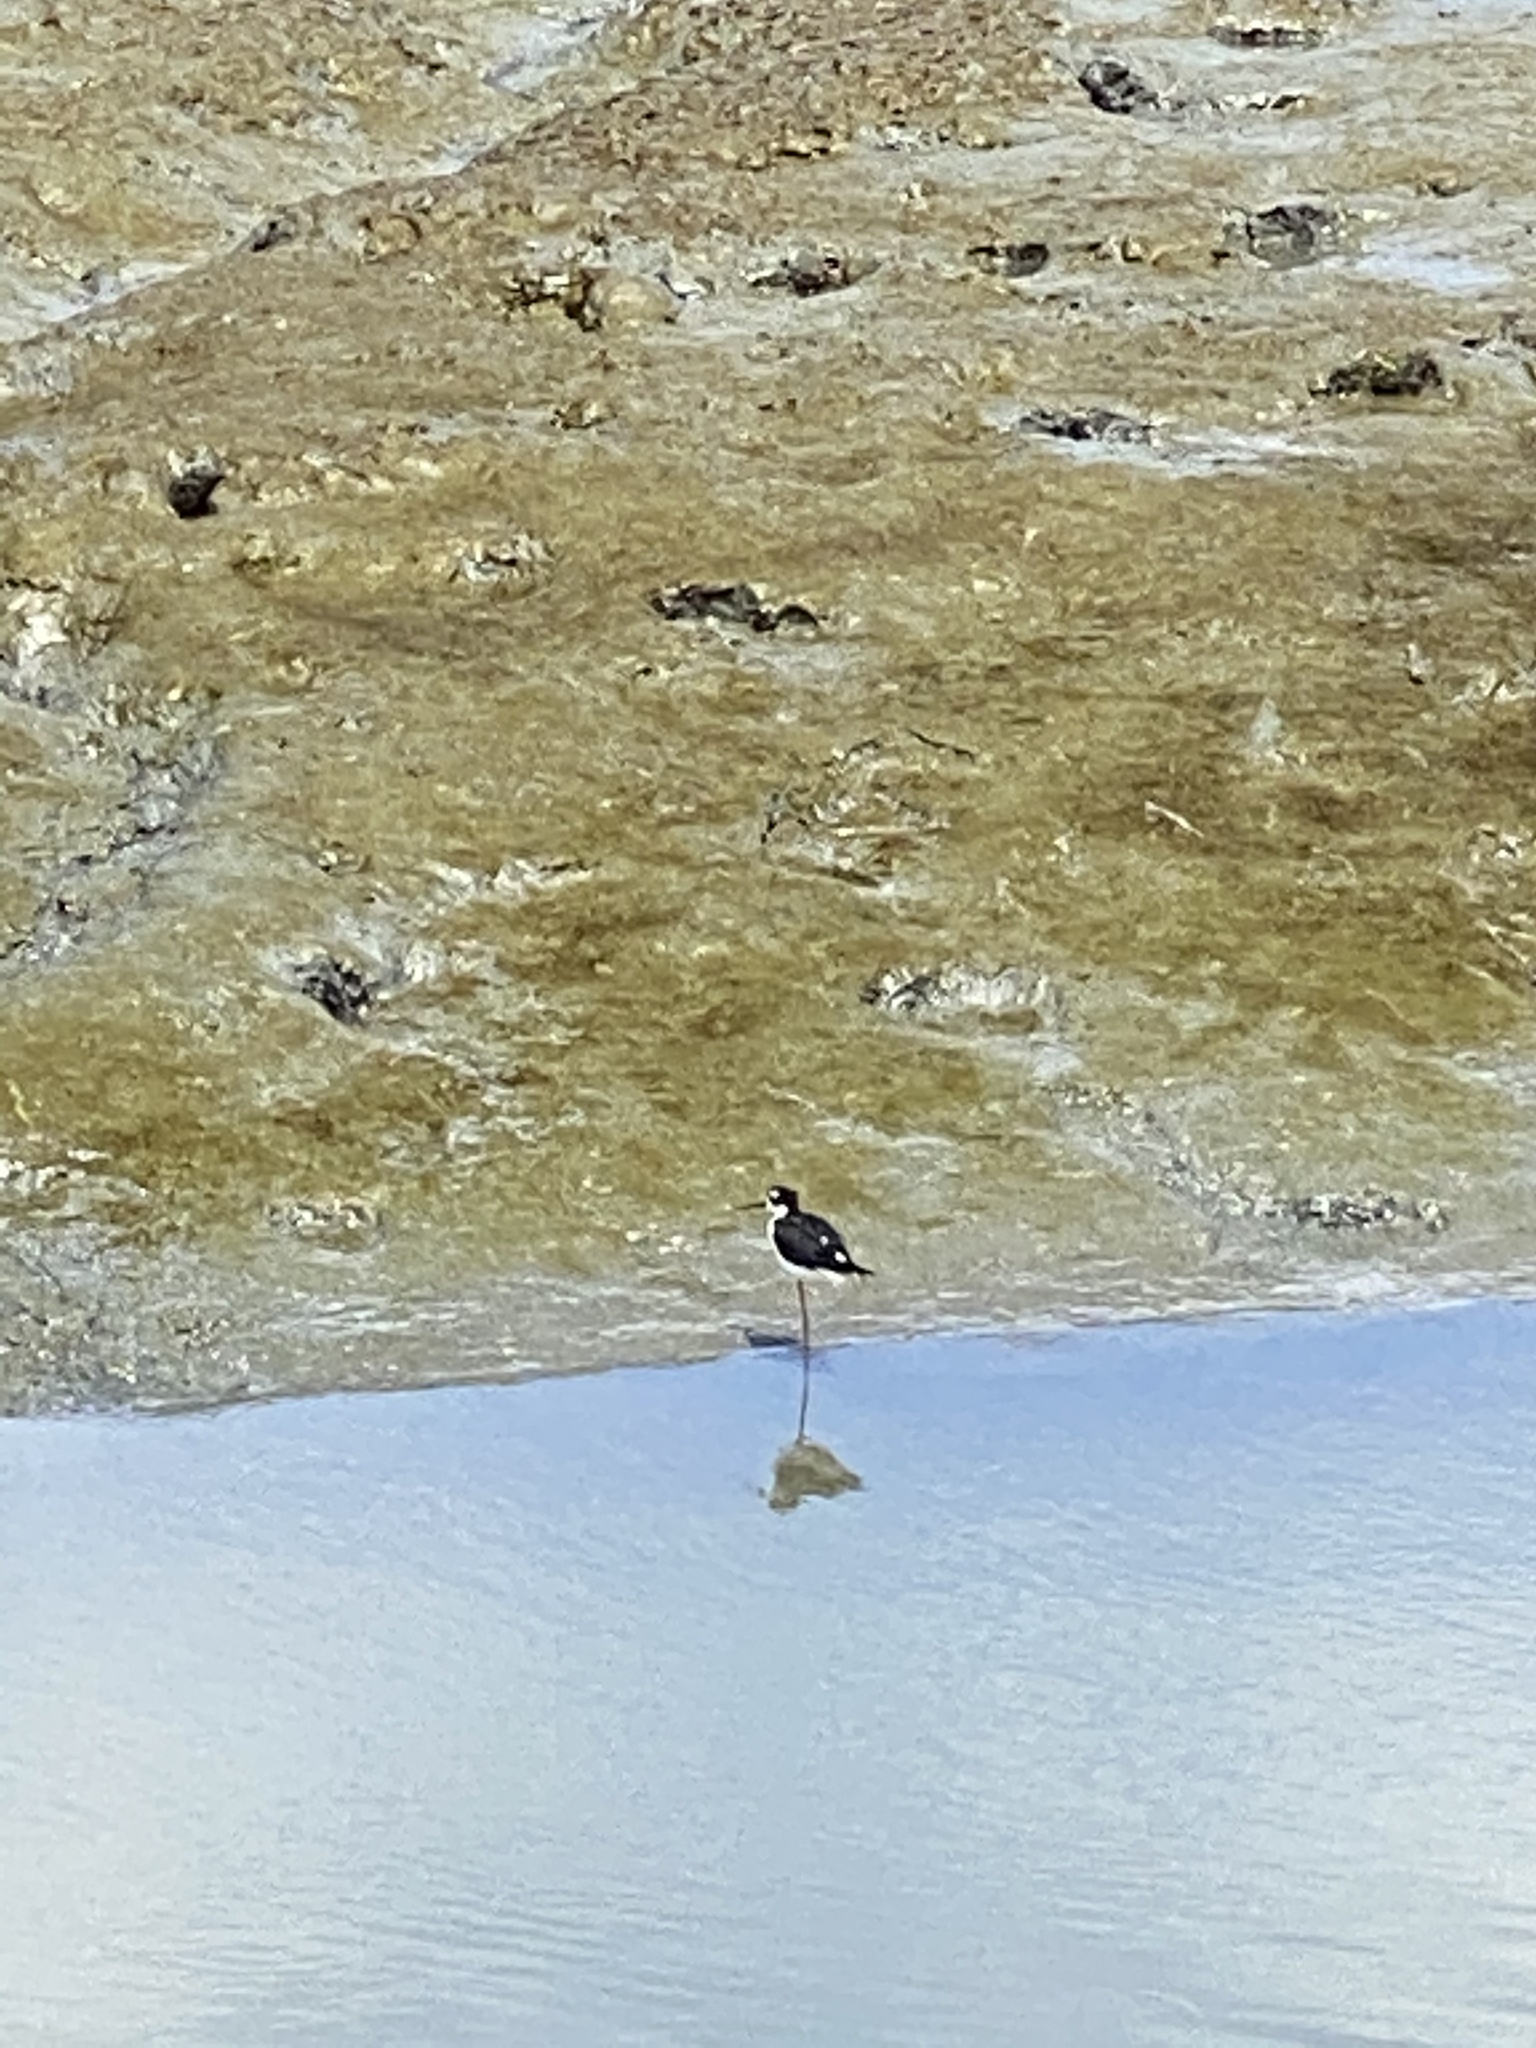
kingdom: Animalia
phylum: Chordata
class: Aves
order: Charadriiformes
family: Recurvirostridae
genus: Himantopus
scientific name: Himantopus mexicanus
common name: Black-necked stilt
